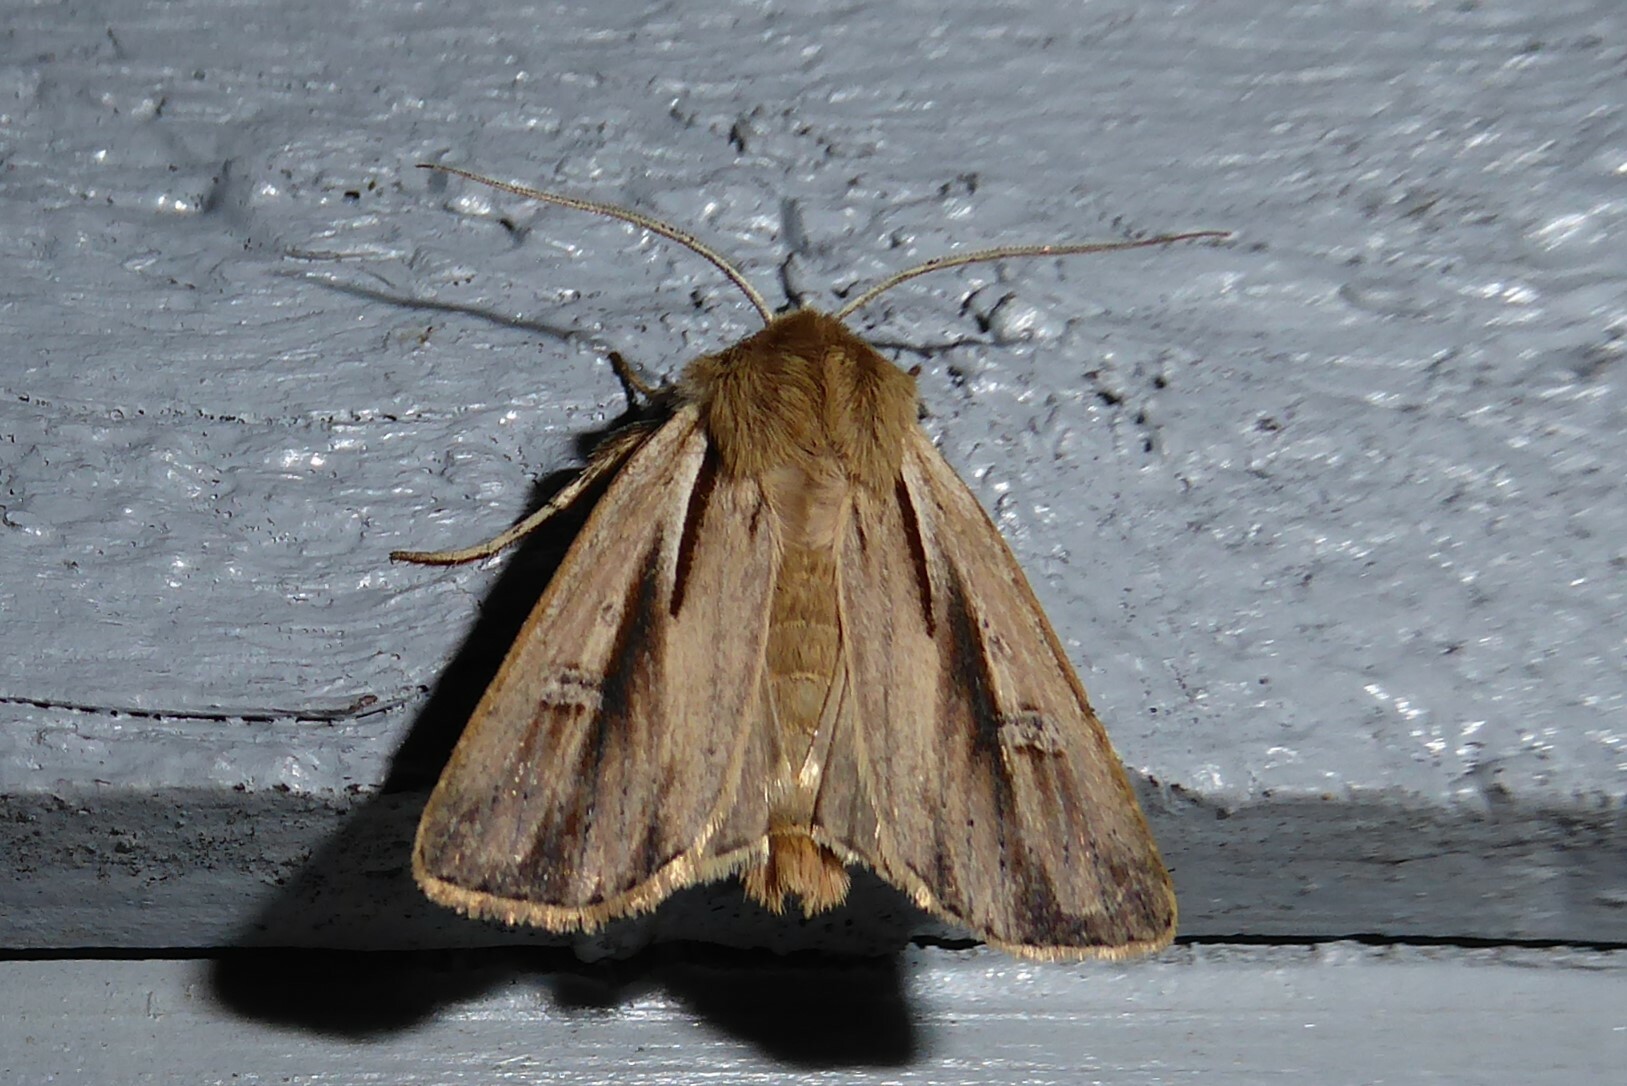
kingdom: Animalia
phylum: Arthropoda
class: Insecta
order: Lepidoptera
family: Noctuidae
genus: Ichneutica
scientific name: Ichneutica propria
